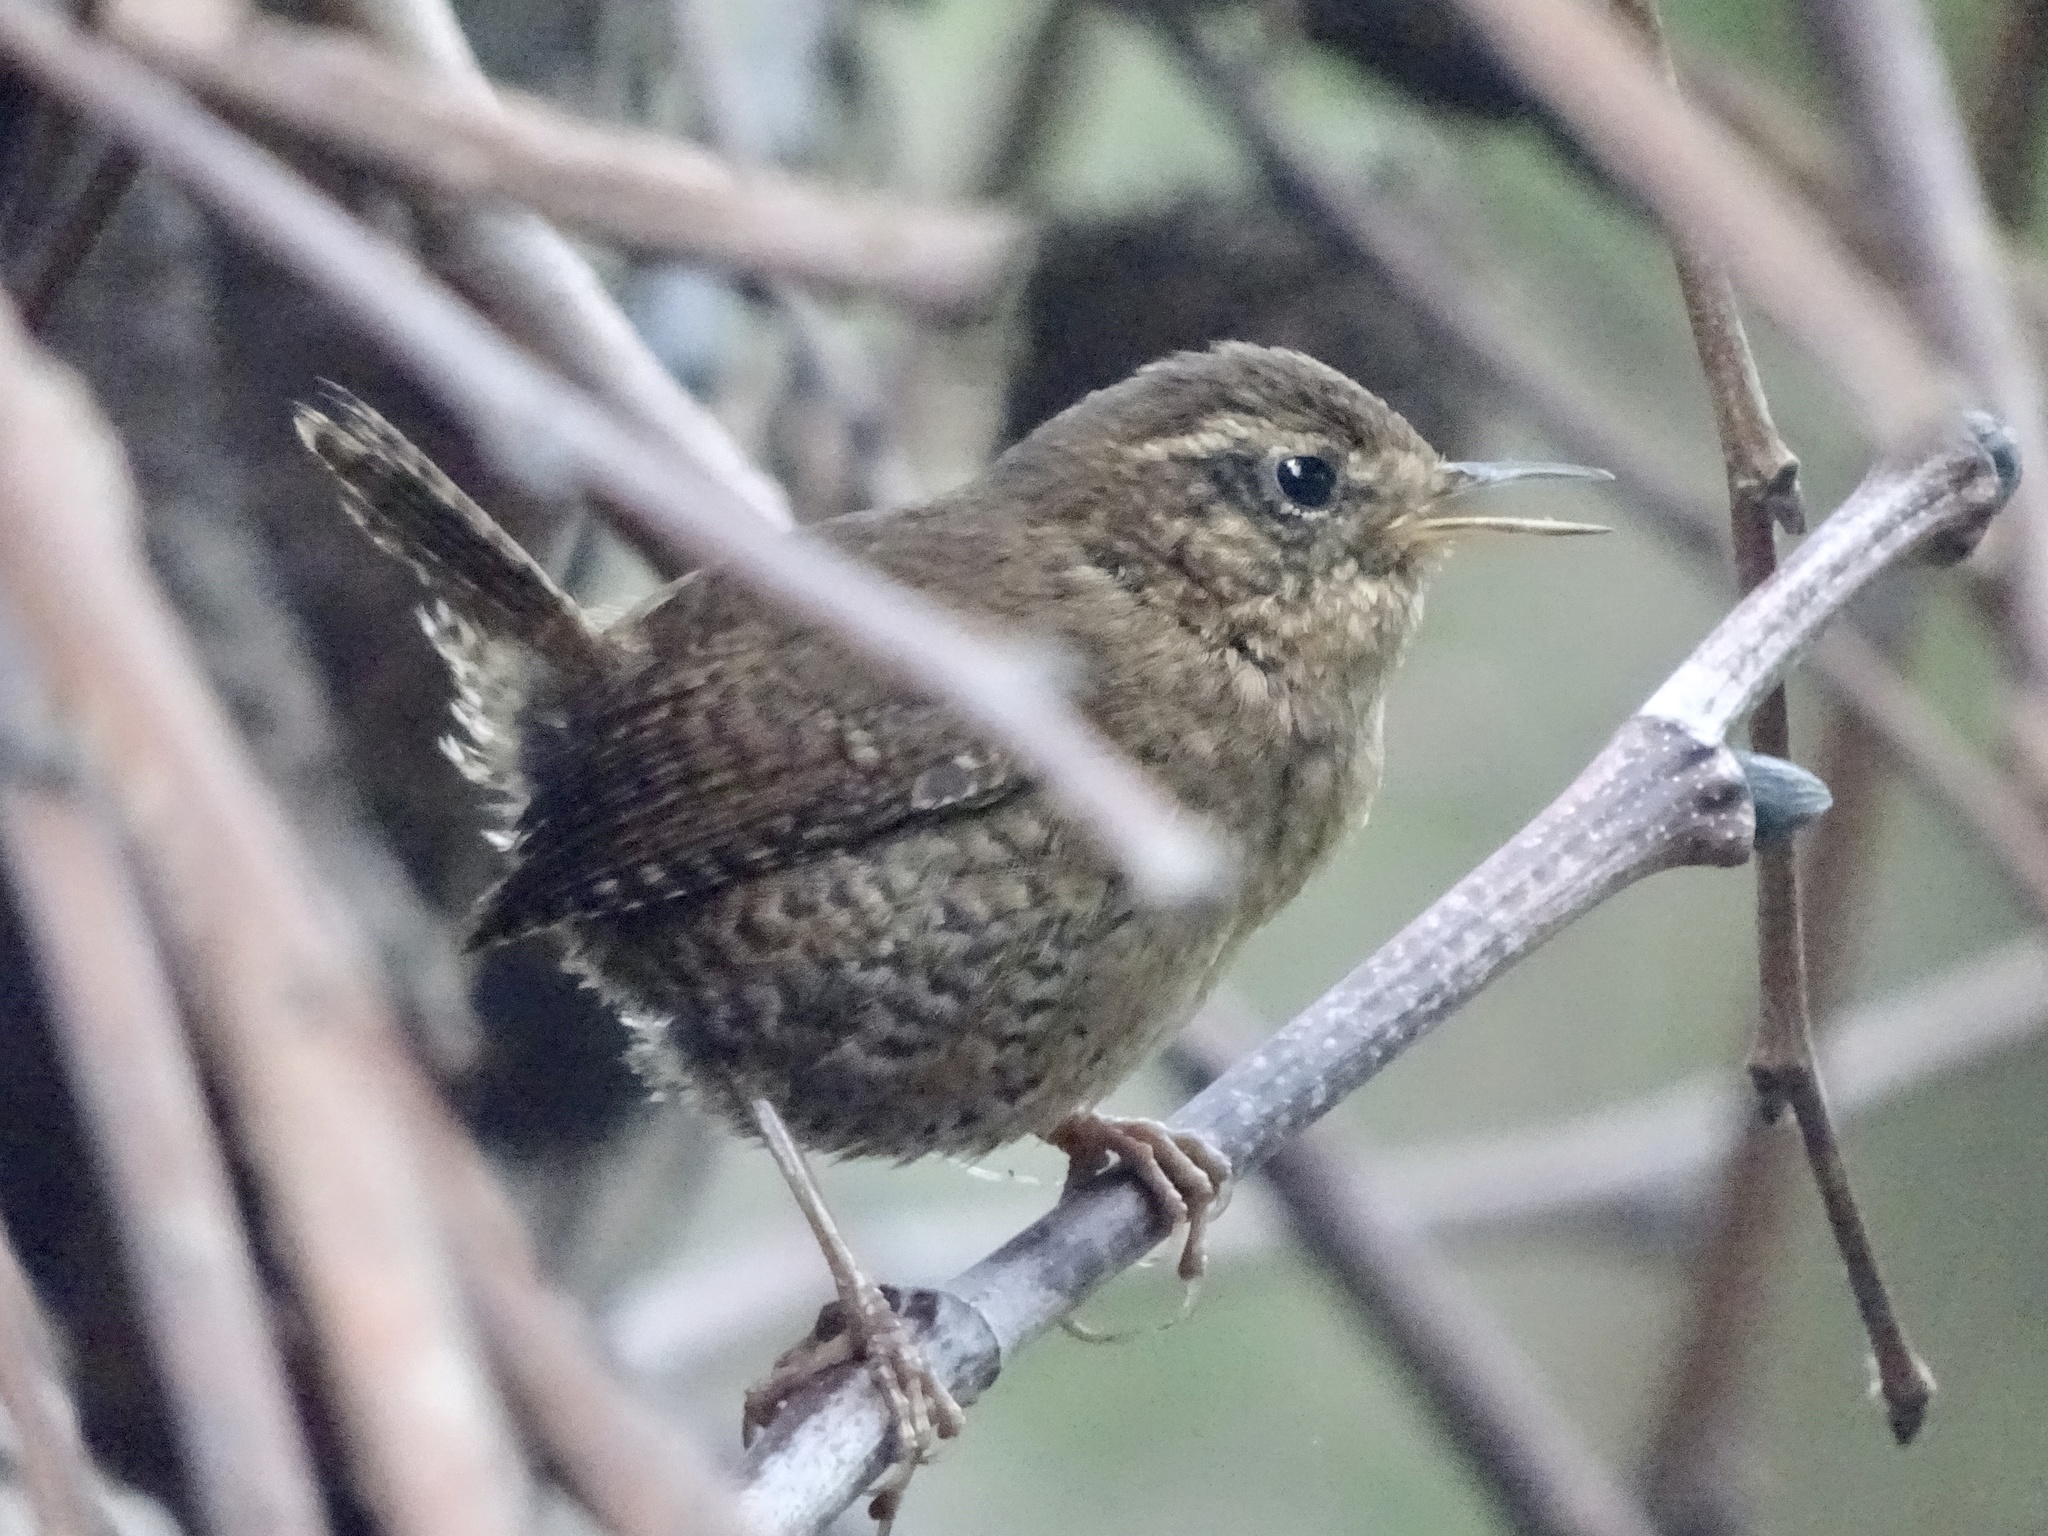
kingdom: Animalia
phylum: Chordata
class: Aves
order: Passeriformes
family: Troglodytidae
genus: Troglodytes
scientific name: Troglodytes pacificus
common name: Pacific wren
